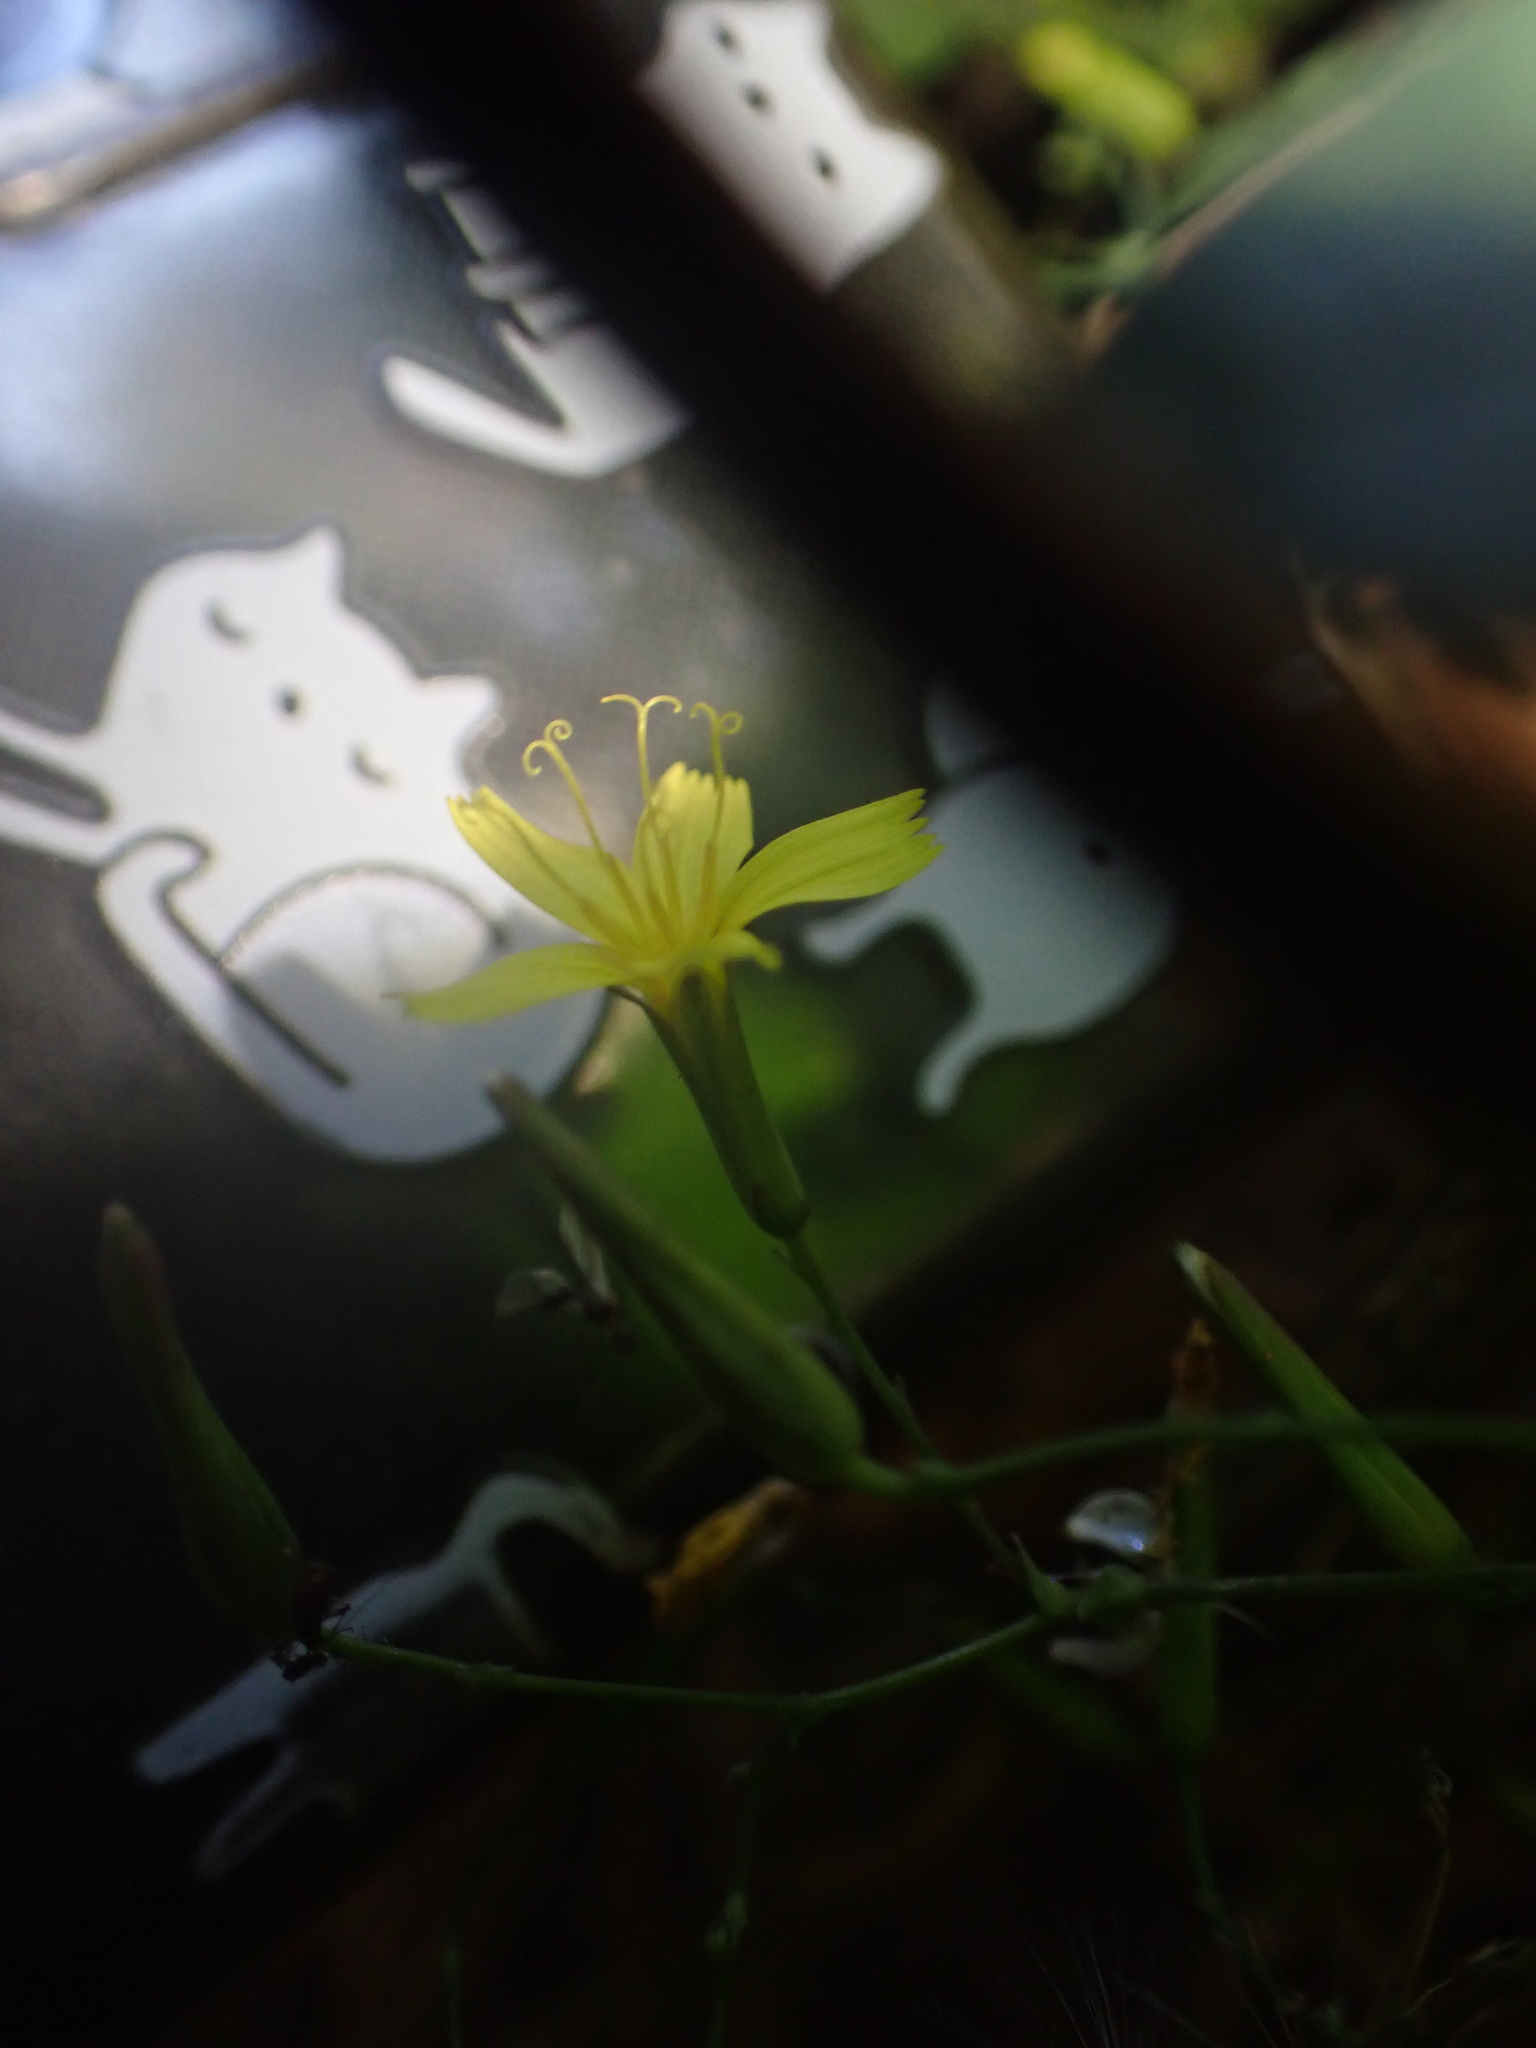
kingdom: Plantae
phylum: Tracheophyta
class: Magnoliopsida
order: Asterales
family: Asteraceae
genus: Mycelis
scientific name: Mycelis muralis
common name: Wall lettuce
